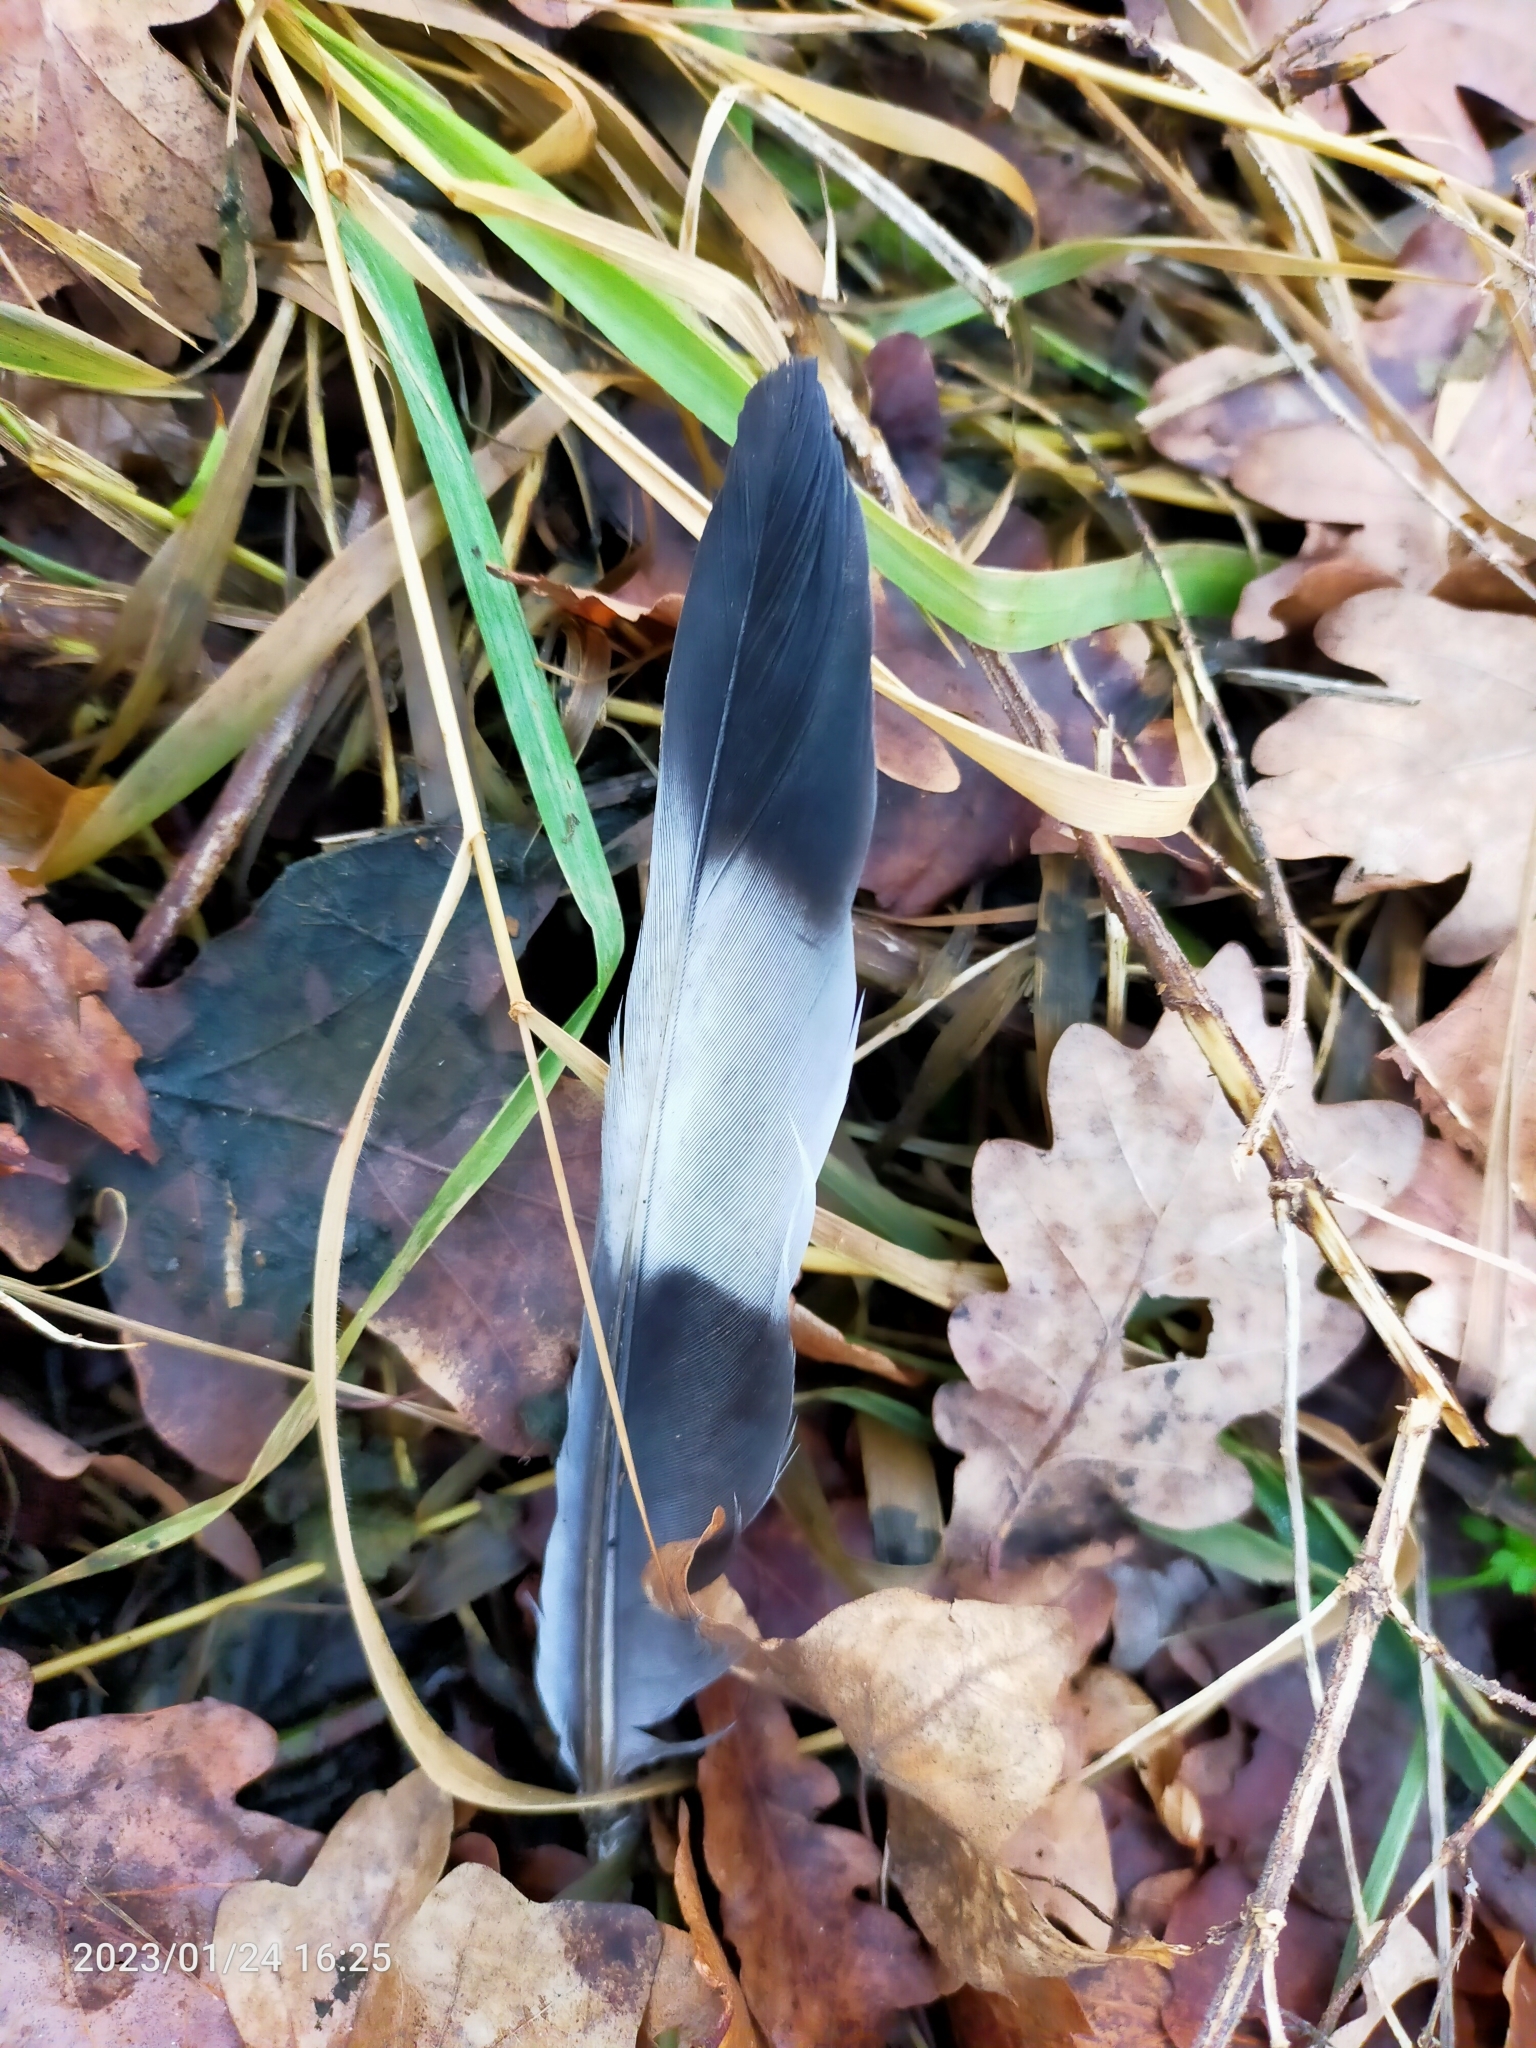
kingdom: Animalia
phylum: Chordata
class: Aves
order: Columbiformes
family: Columbidae
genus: Columba
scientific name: Columba palumbus
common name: Common wood pigeon
